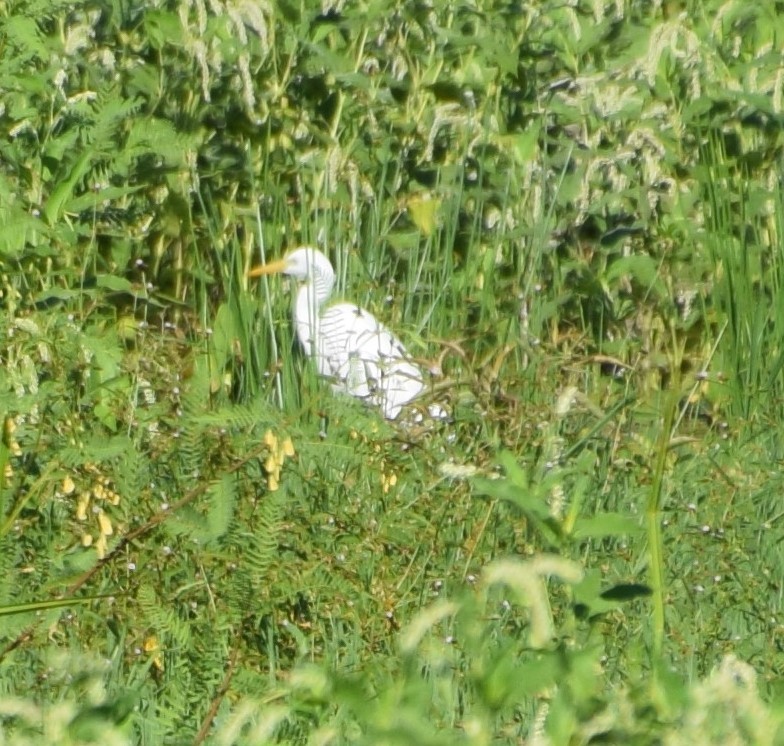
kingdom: Animalia
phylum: Chordata
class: Aves
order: Pelecaniformes
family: Ardeidae
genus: Egretta
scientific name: Egretta intermedia
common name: Intermediate egret
